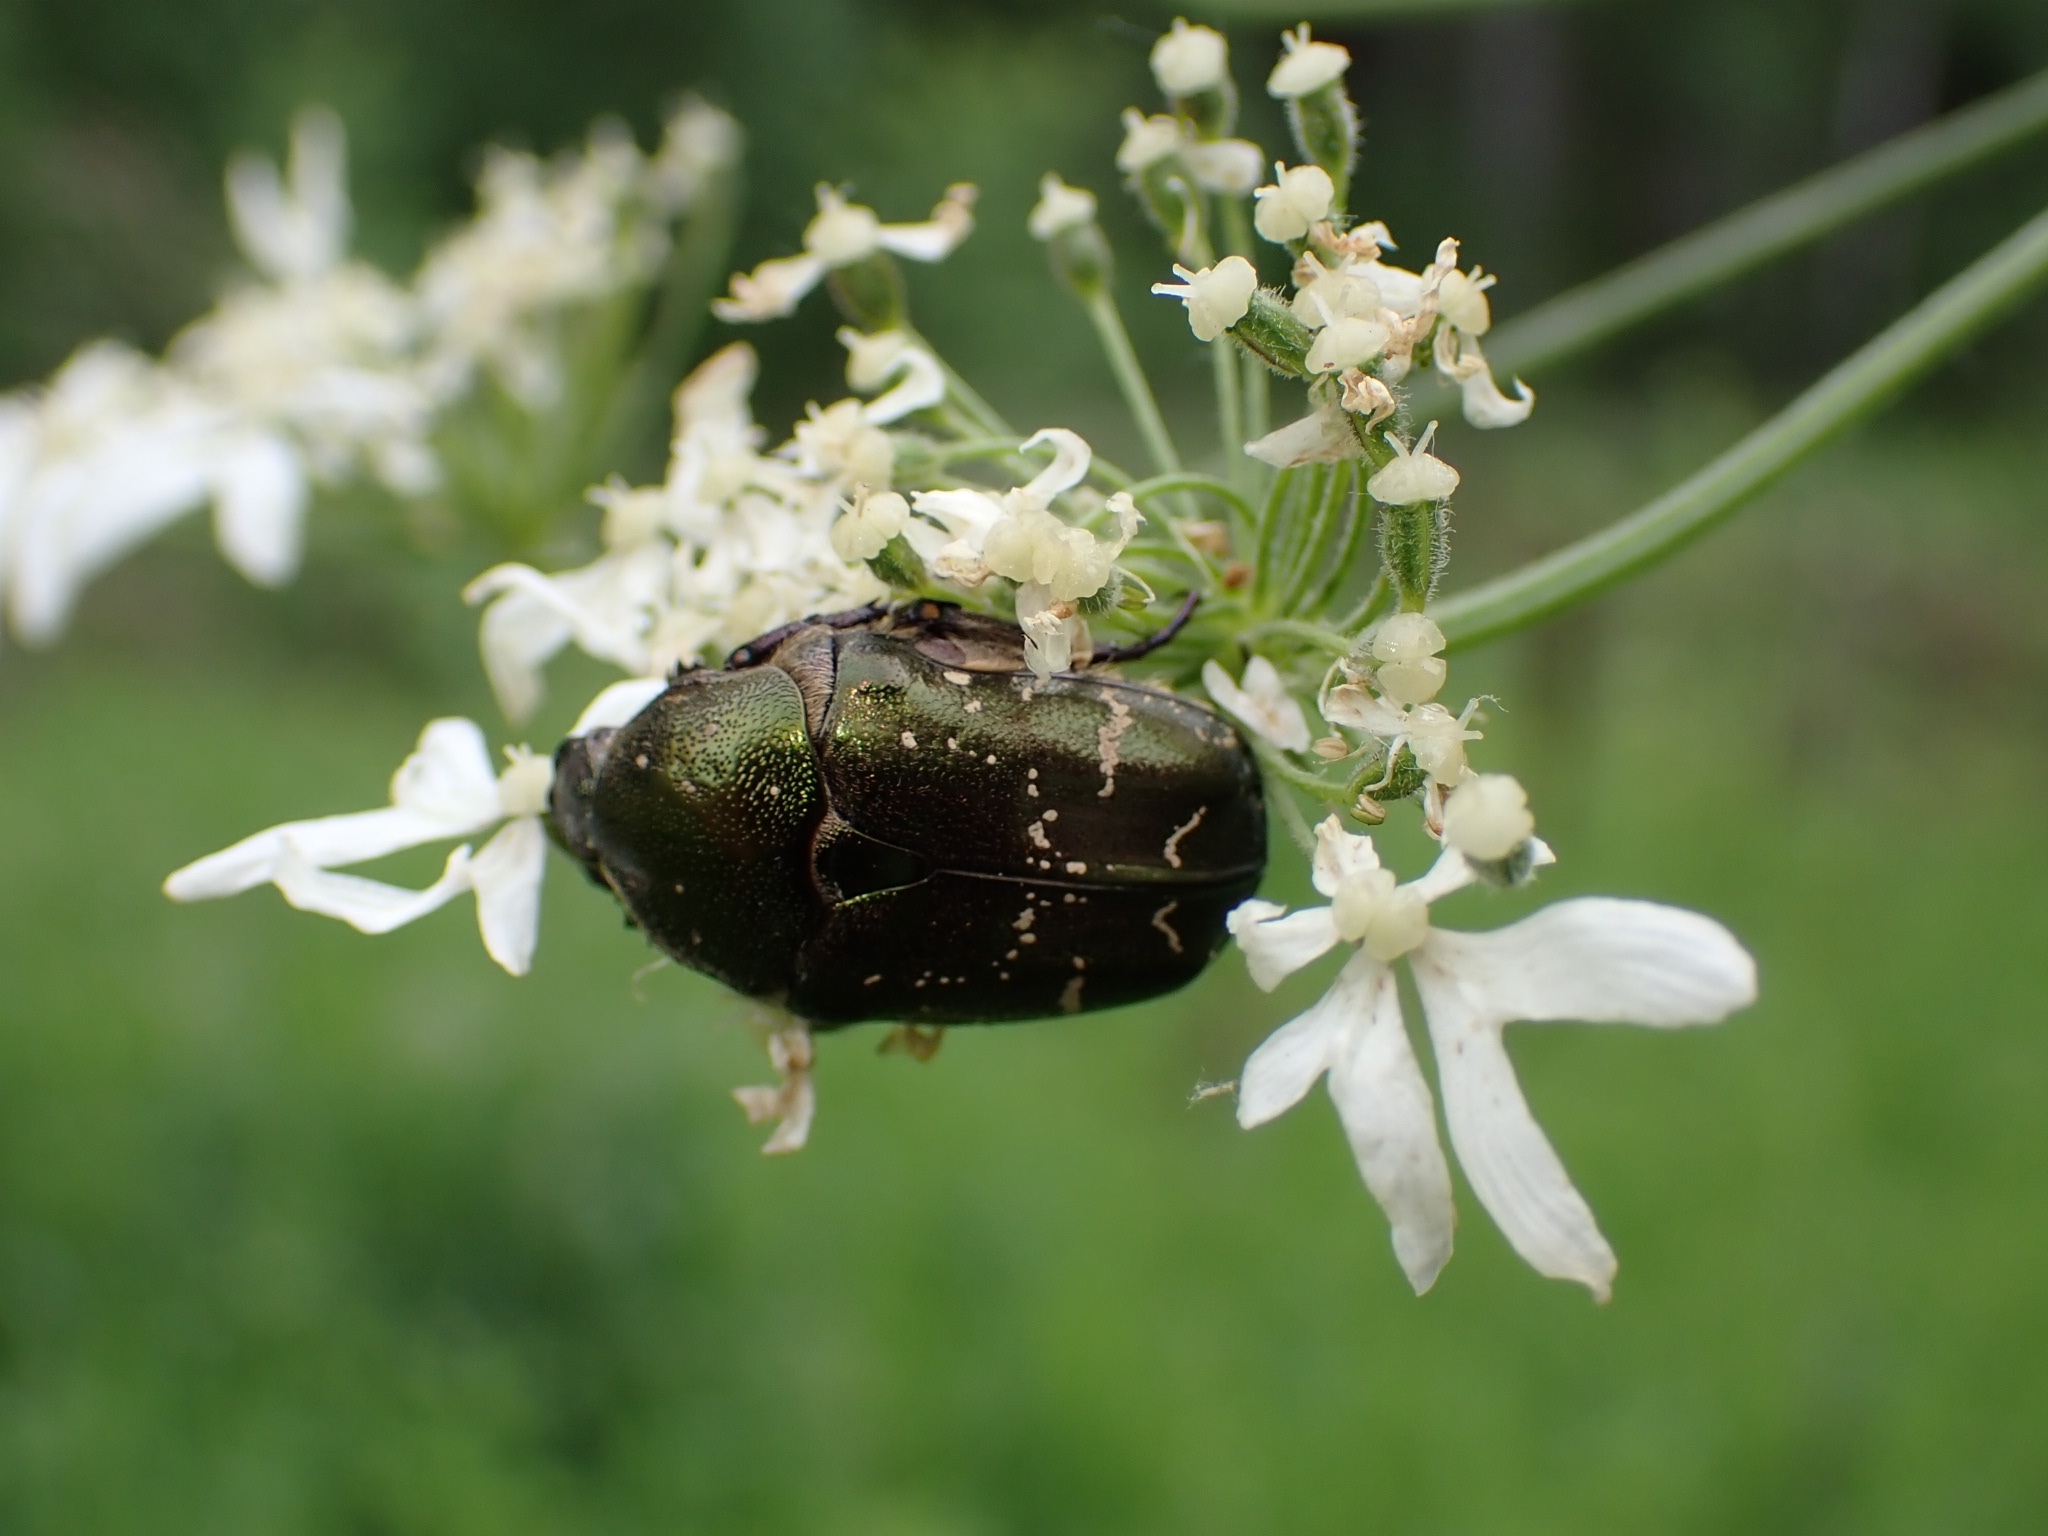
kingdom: Animalia
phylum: Arthropoda
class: Insecta
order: Coleoptera
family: Scarabaeidae
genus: Protaetia
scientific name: Protaetia cuprea
